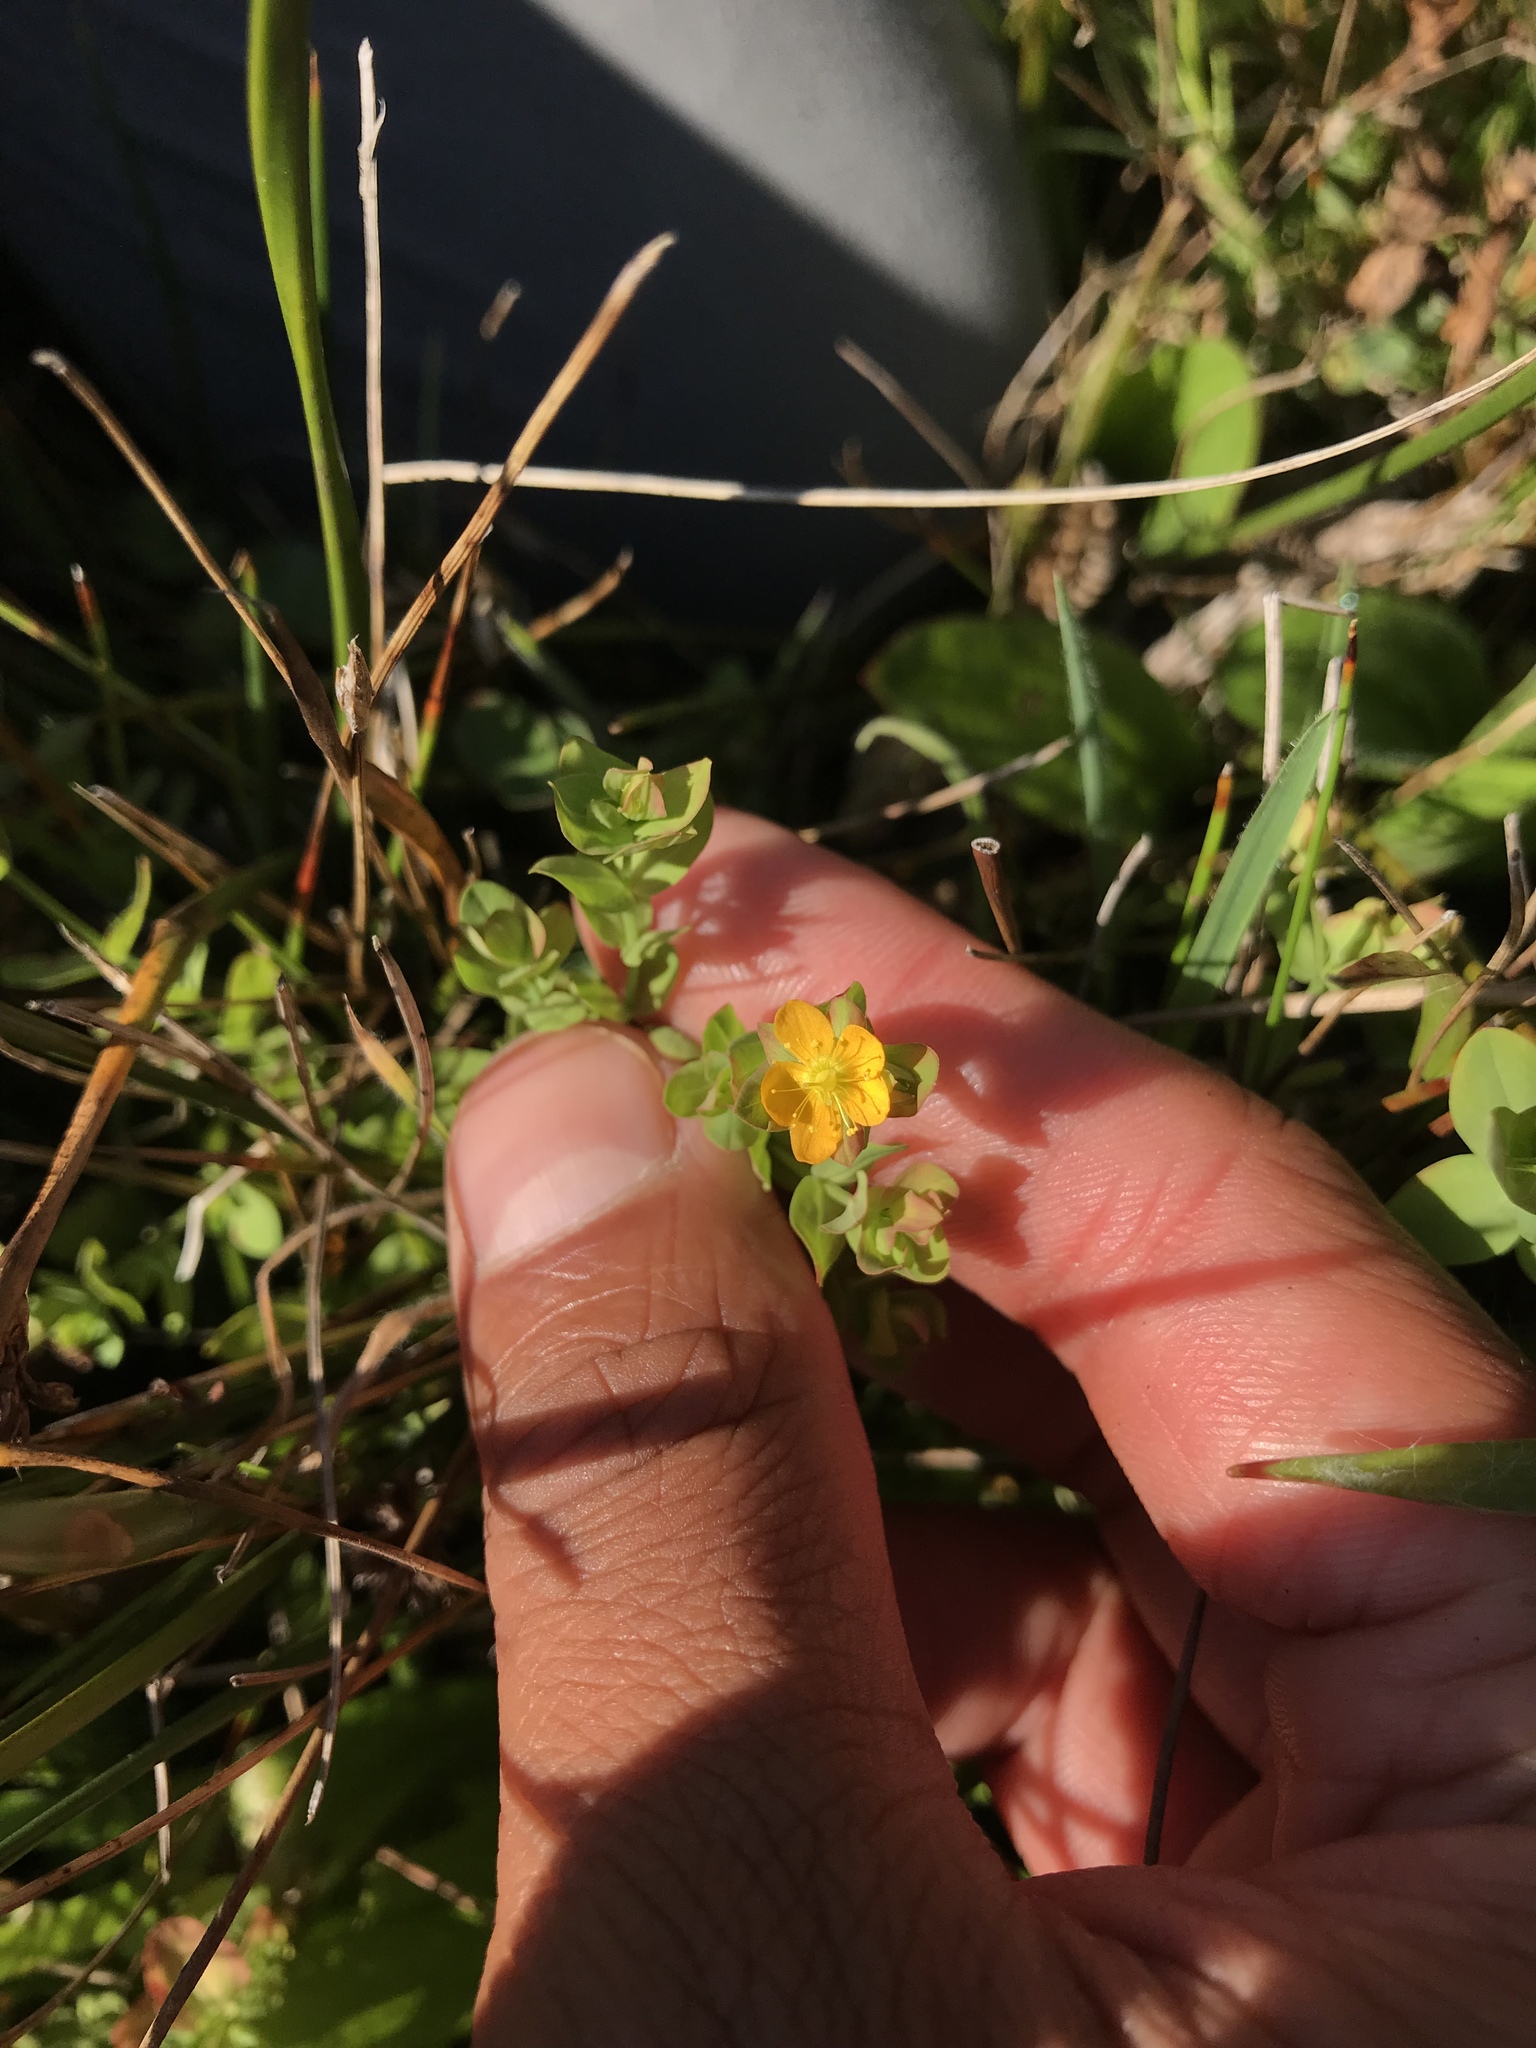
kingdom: Plantae
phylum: Tracheophyta
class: Magnoliopsida
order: Malpighiales
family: Hypericaceae
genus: Hypericum
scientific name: Hypericum anagalloides
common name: Bog st. john's-wort
